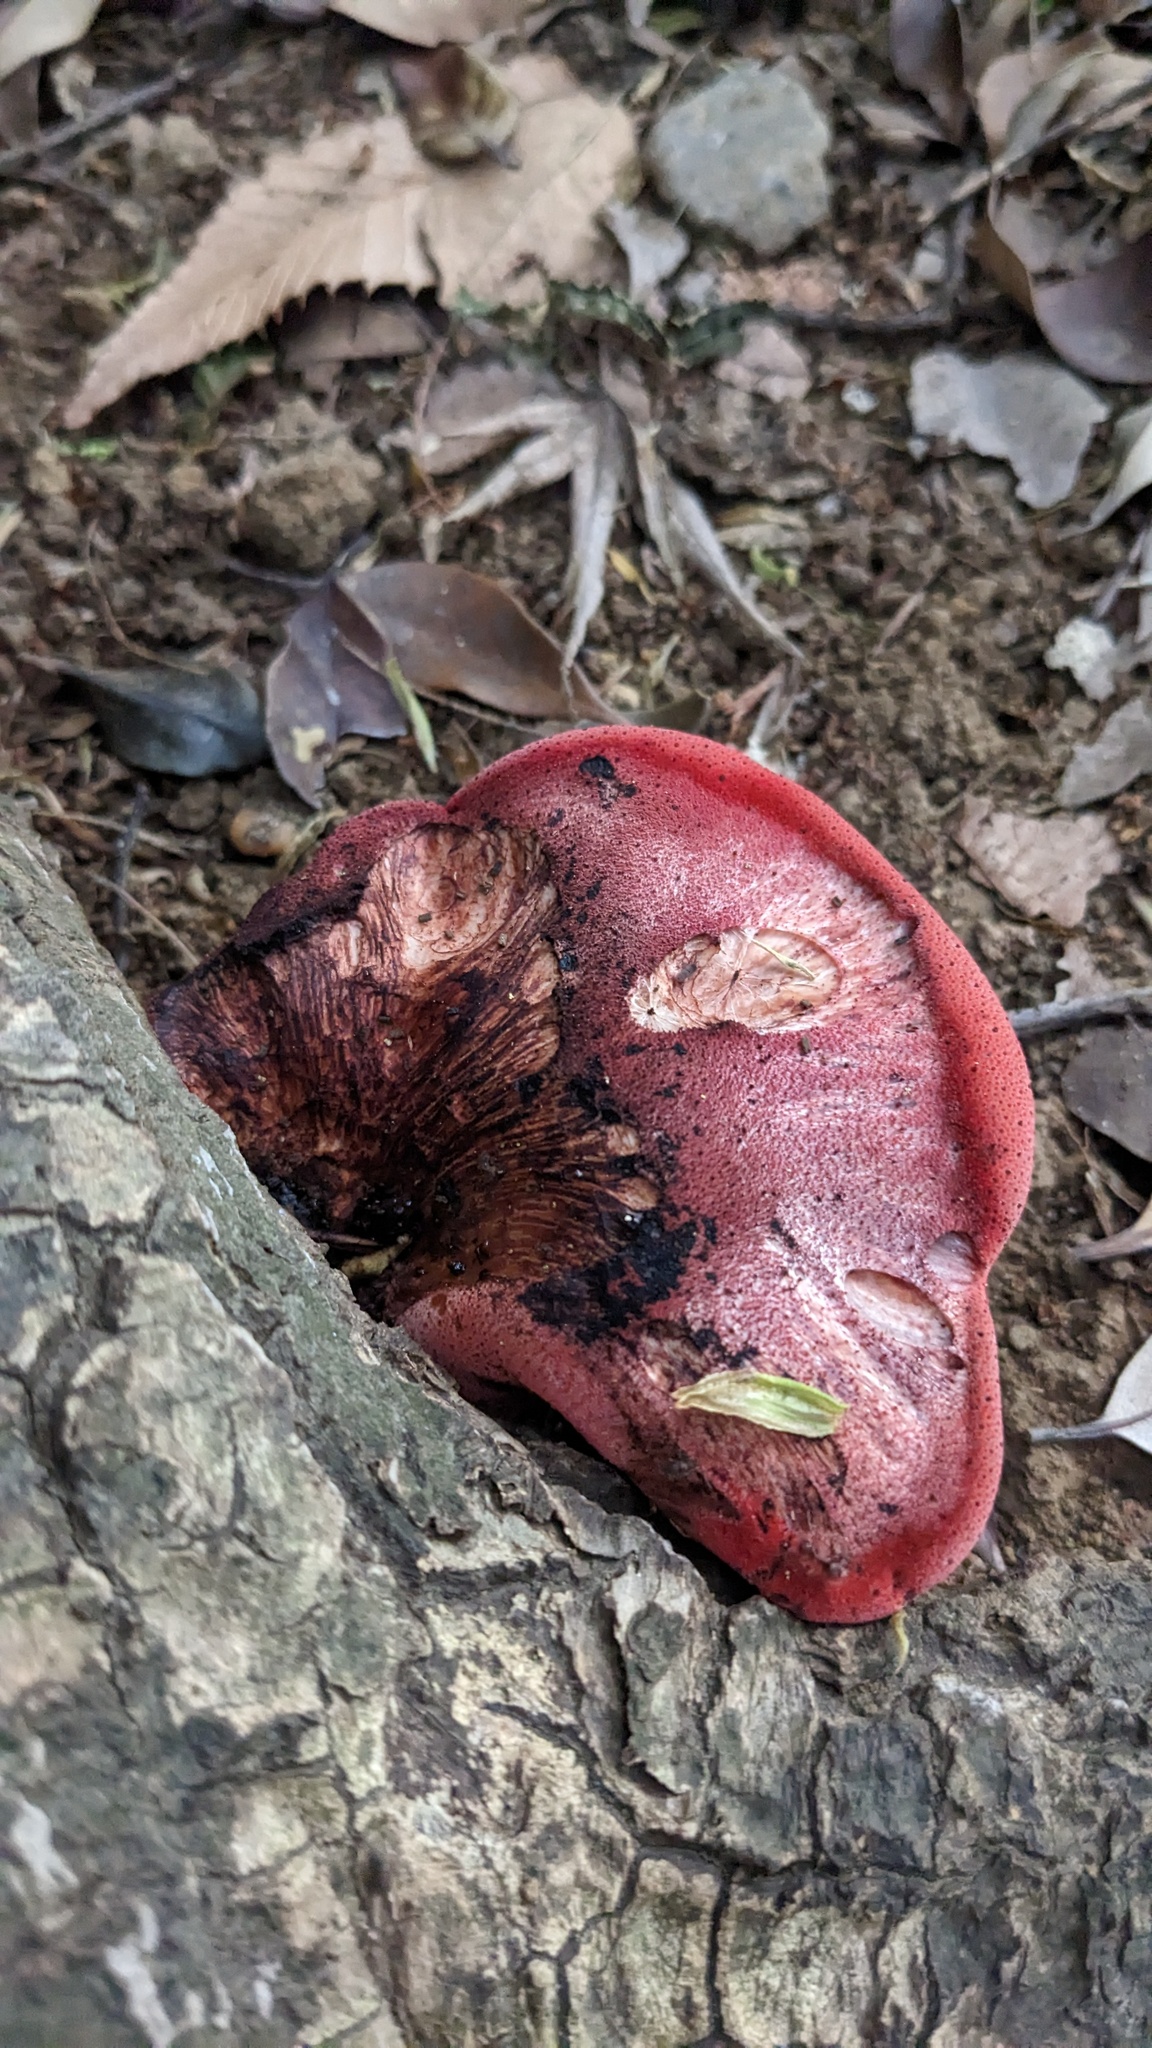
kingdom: Fungi
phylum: Basidiomycota
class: Agaricomycetes
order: Agaricales
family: Fistulinaceae
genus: Fistulina
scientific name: Fistulina hepatica
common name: Beef-steak fungus
